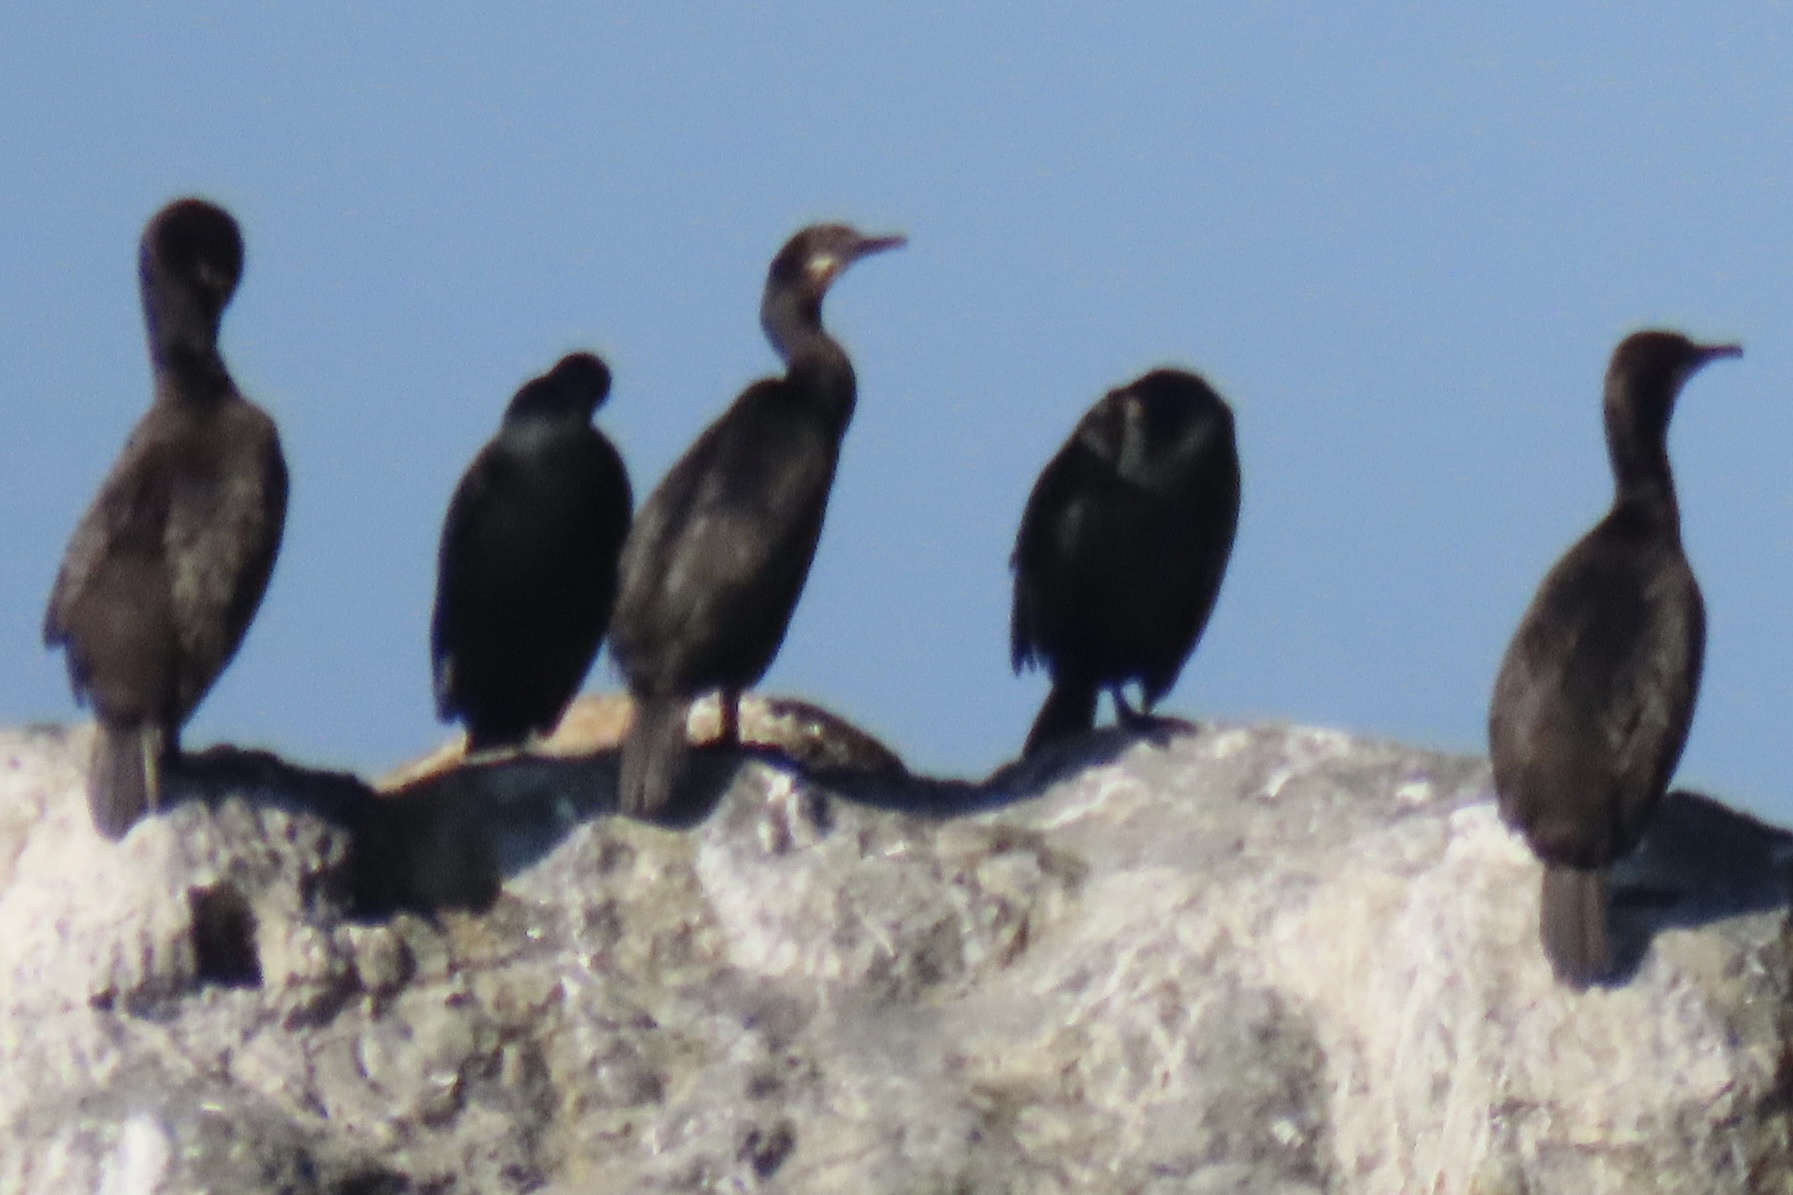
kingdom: Animalia
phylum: Chordata
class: Aves
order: Suliformes
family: Phalacrocoracidae
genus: Urile
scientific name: Urile penicillatus
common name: Brandt's cormorant
